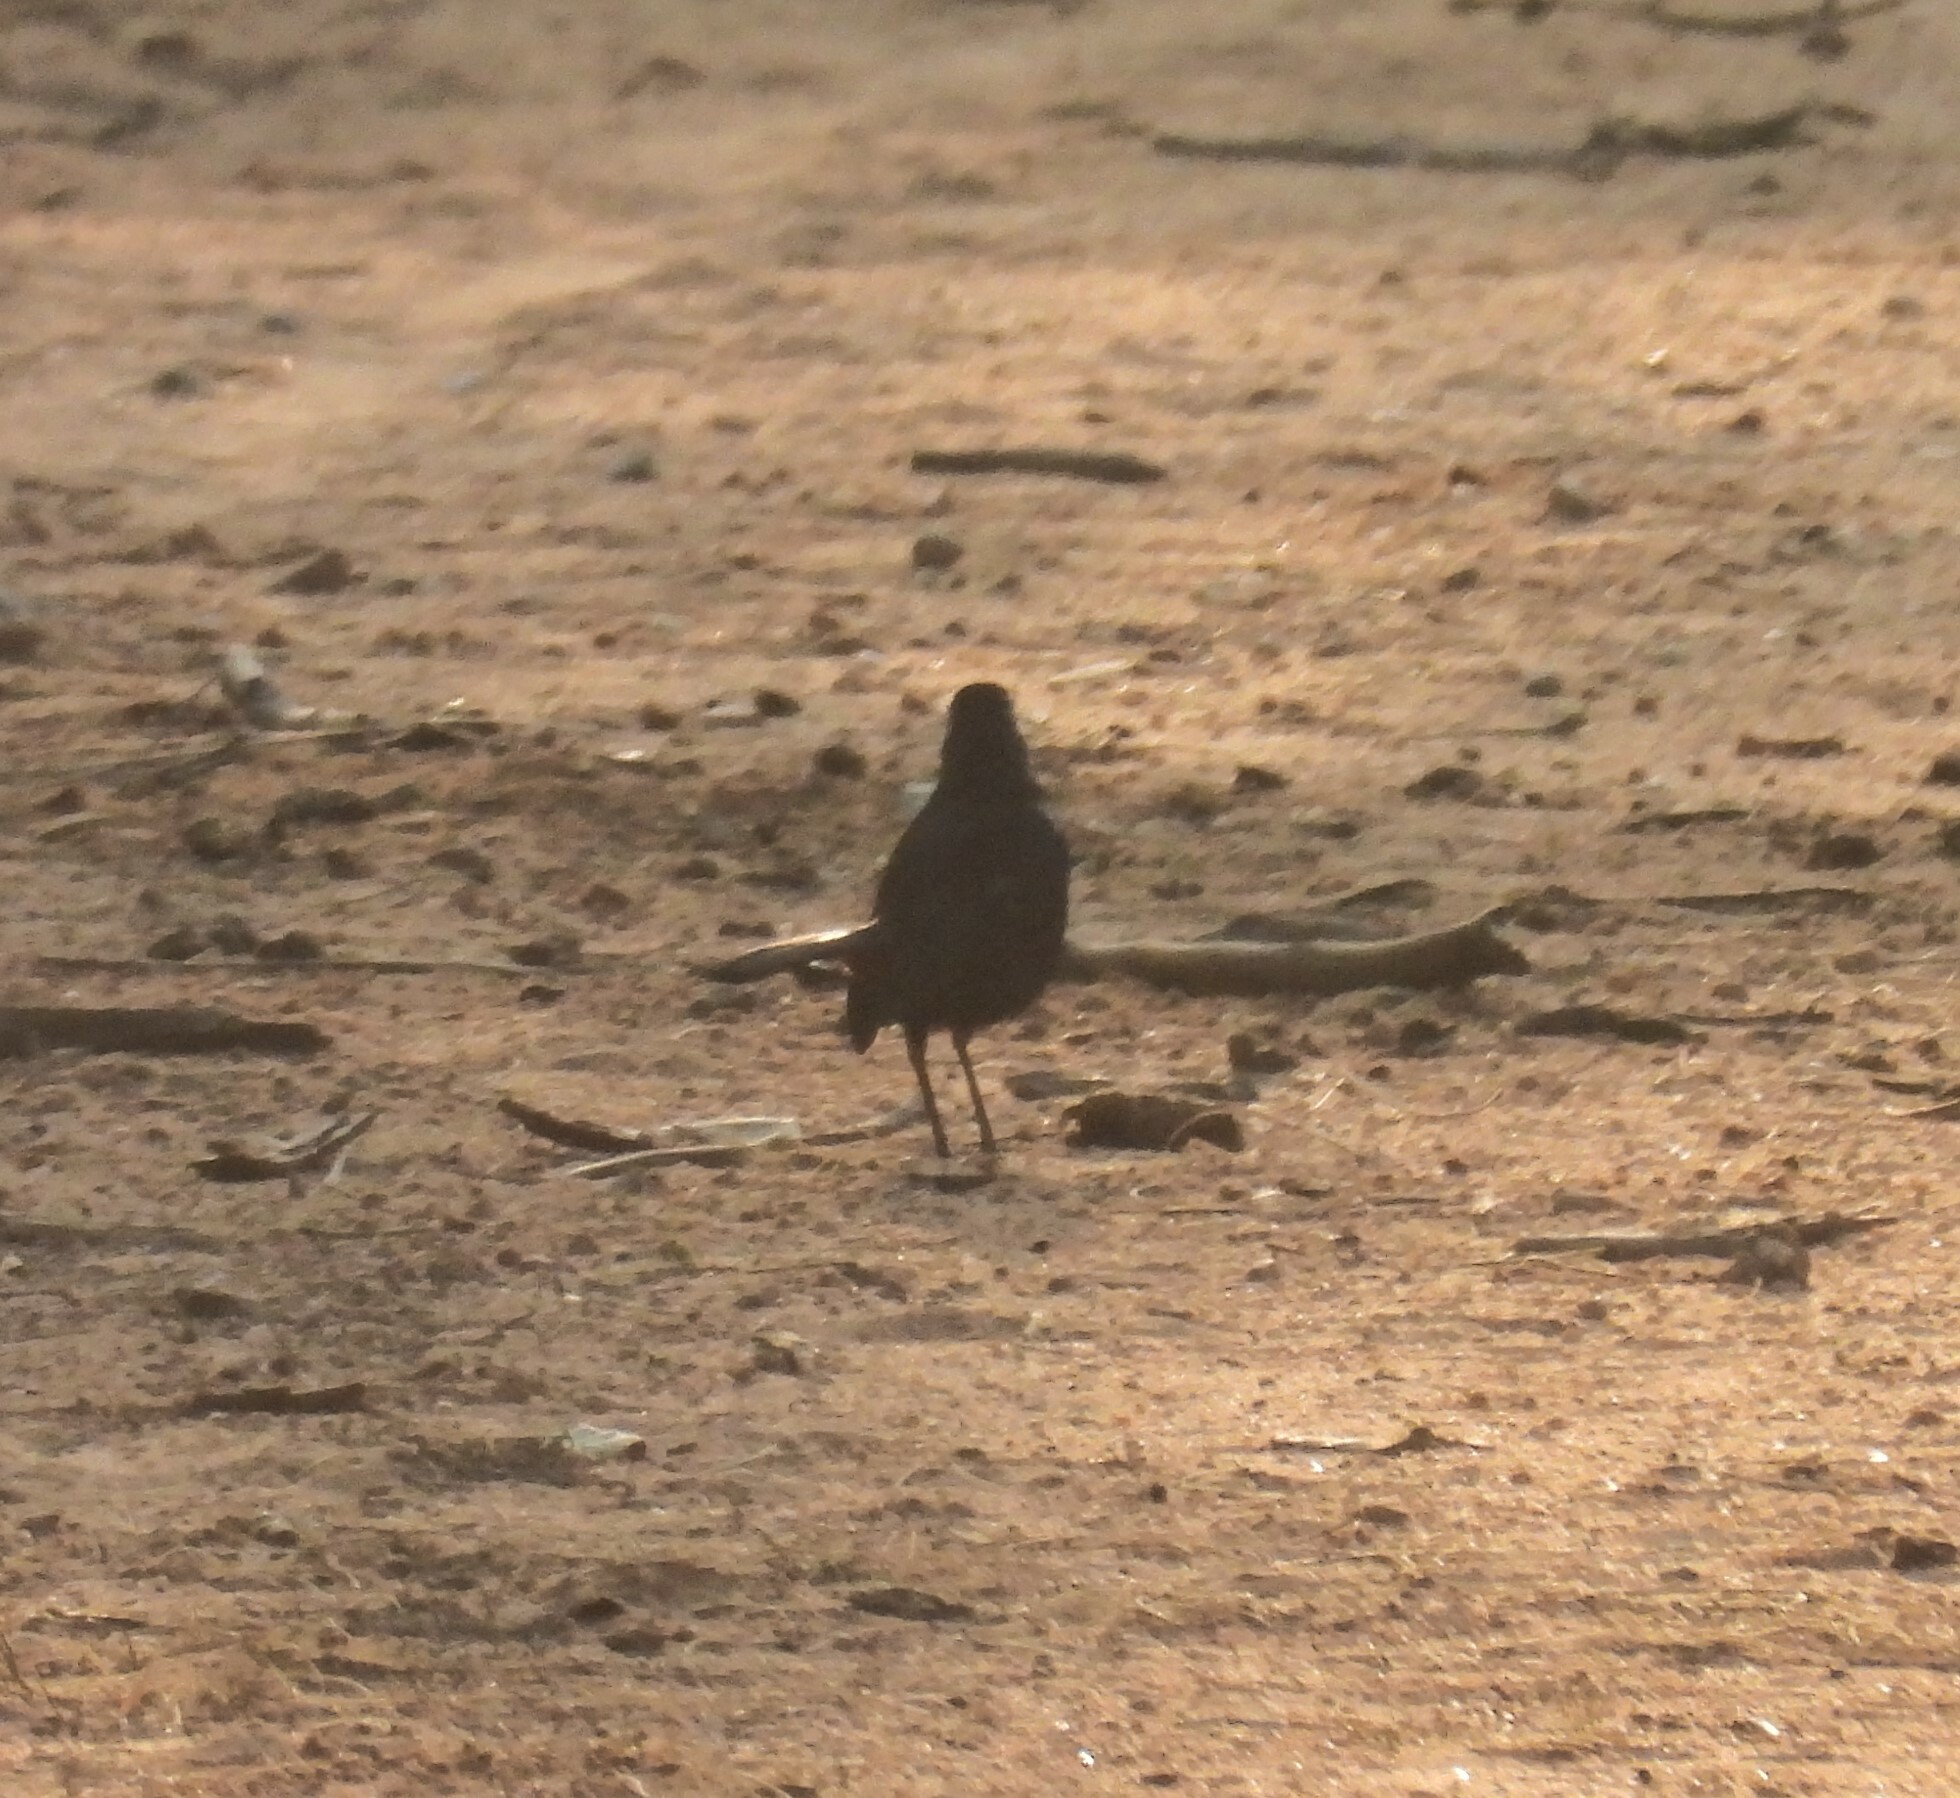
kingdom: Animalia
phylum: Chordata
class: Aves
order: Passeriformes
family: Muscicapidae
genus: Saxicoloides
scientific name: Saxicoloides fulicatus
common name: Indian robin
